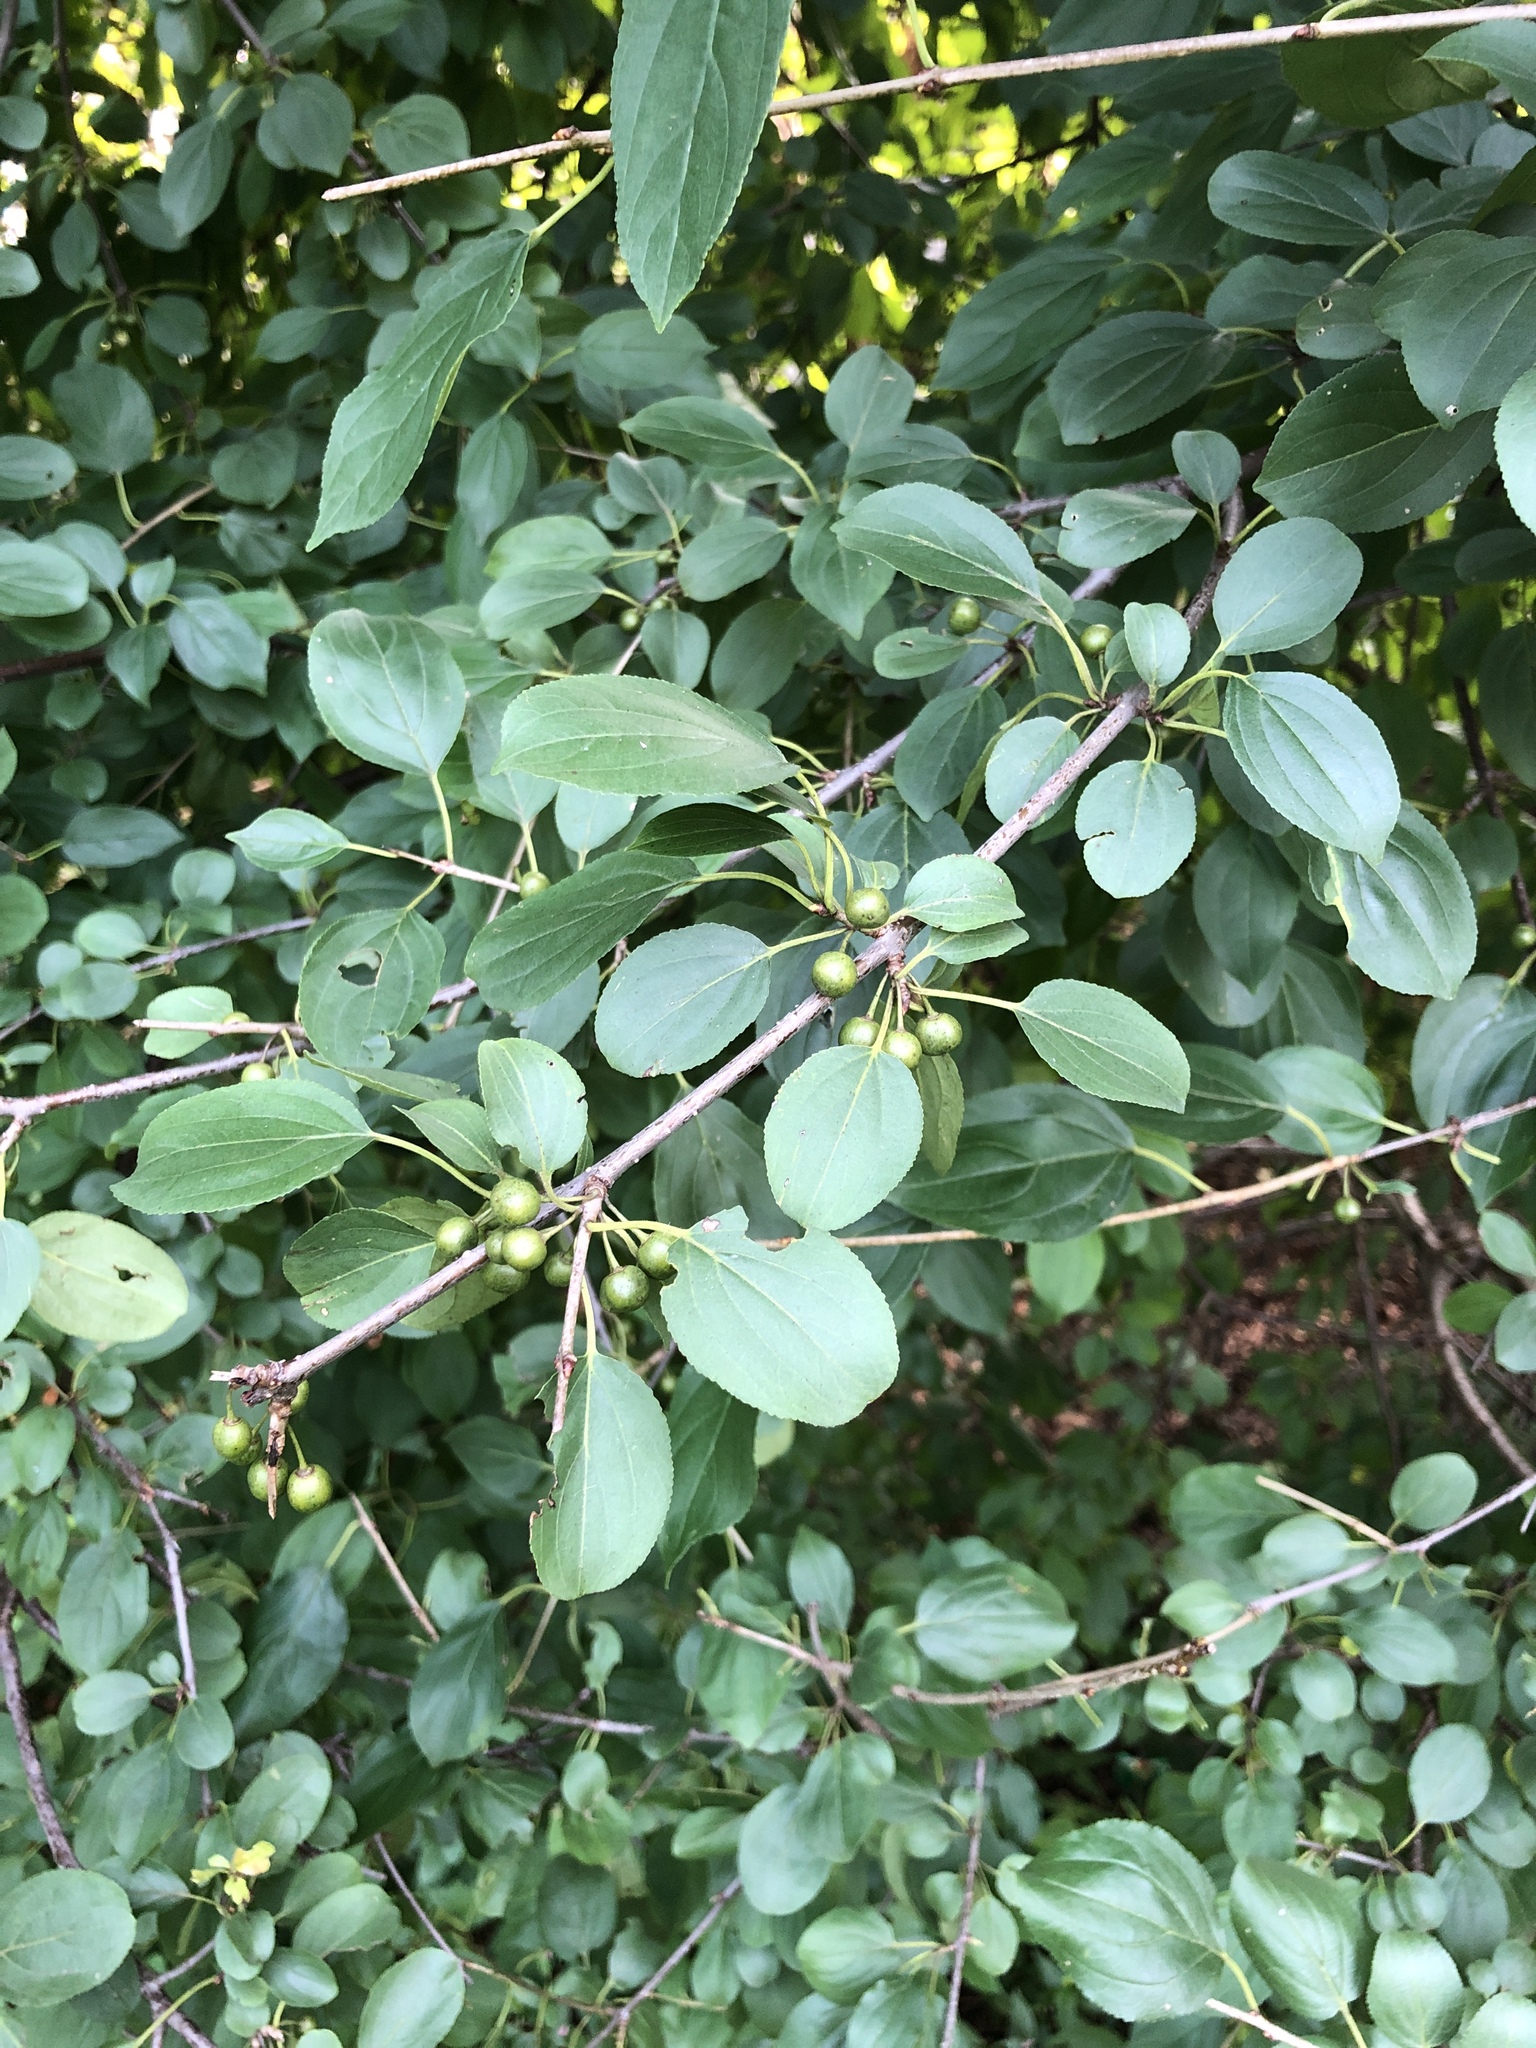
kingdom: Plantae
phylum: Tracheophyta
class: Magnoliopsida
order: Rosales
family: Rhamnaceae
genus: Rhamnus
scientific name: Rhamnus cathartica
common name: Common buckthorn
